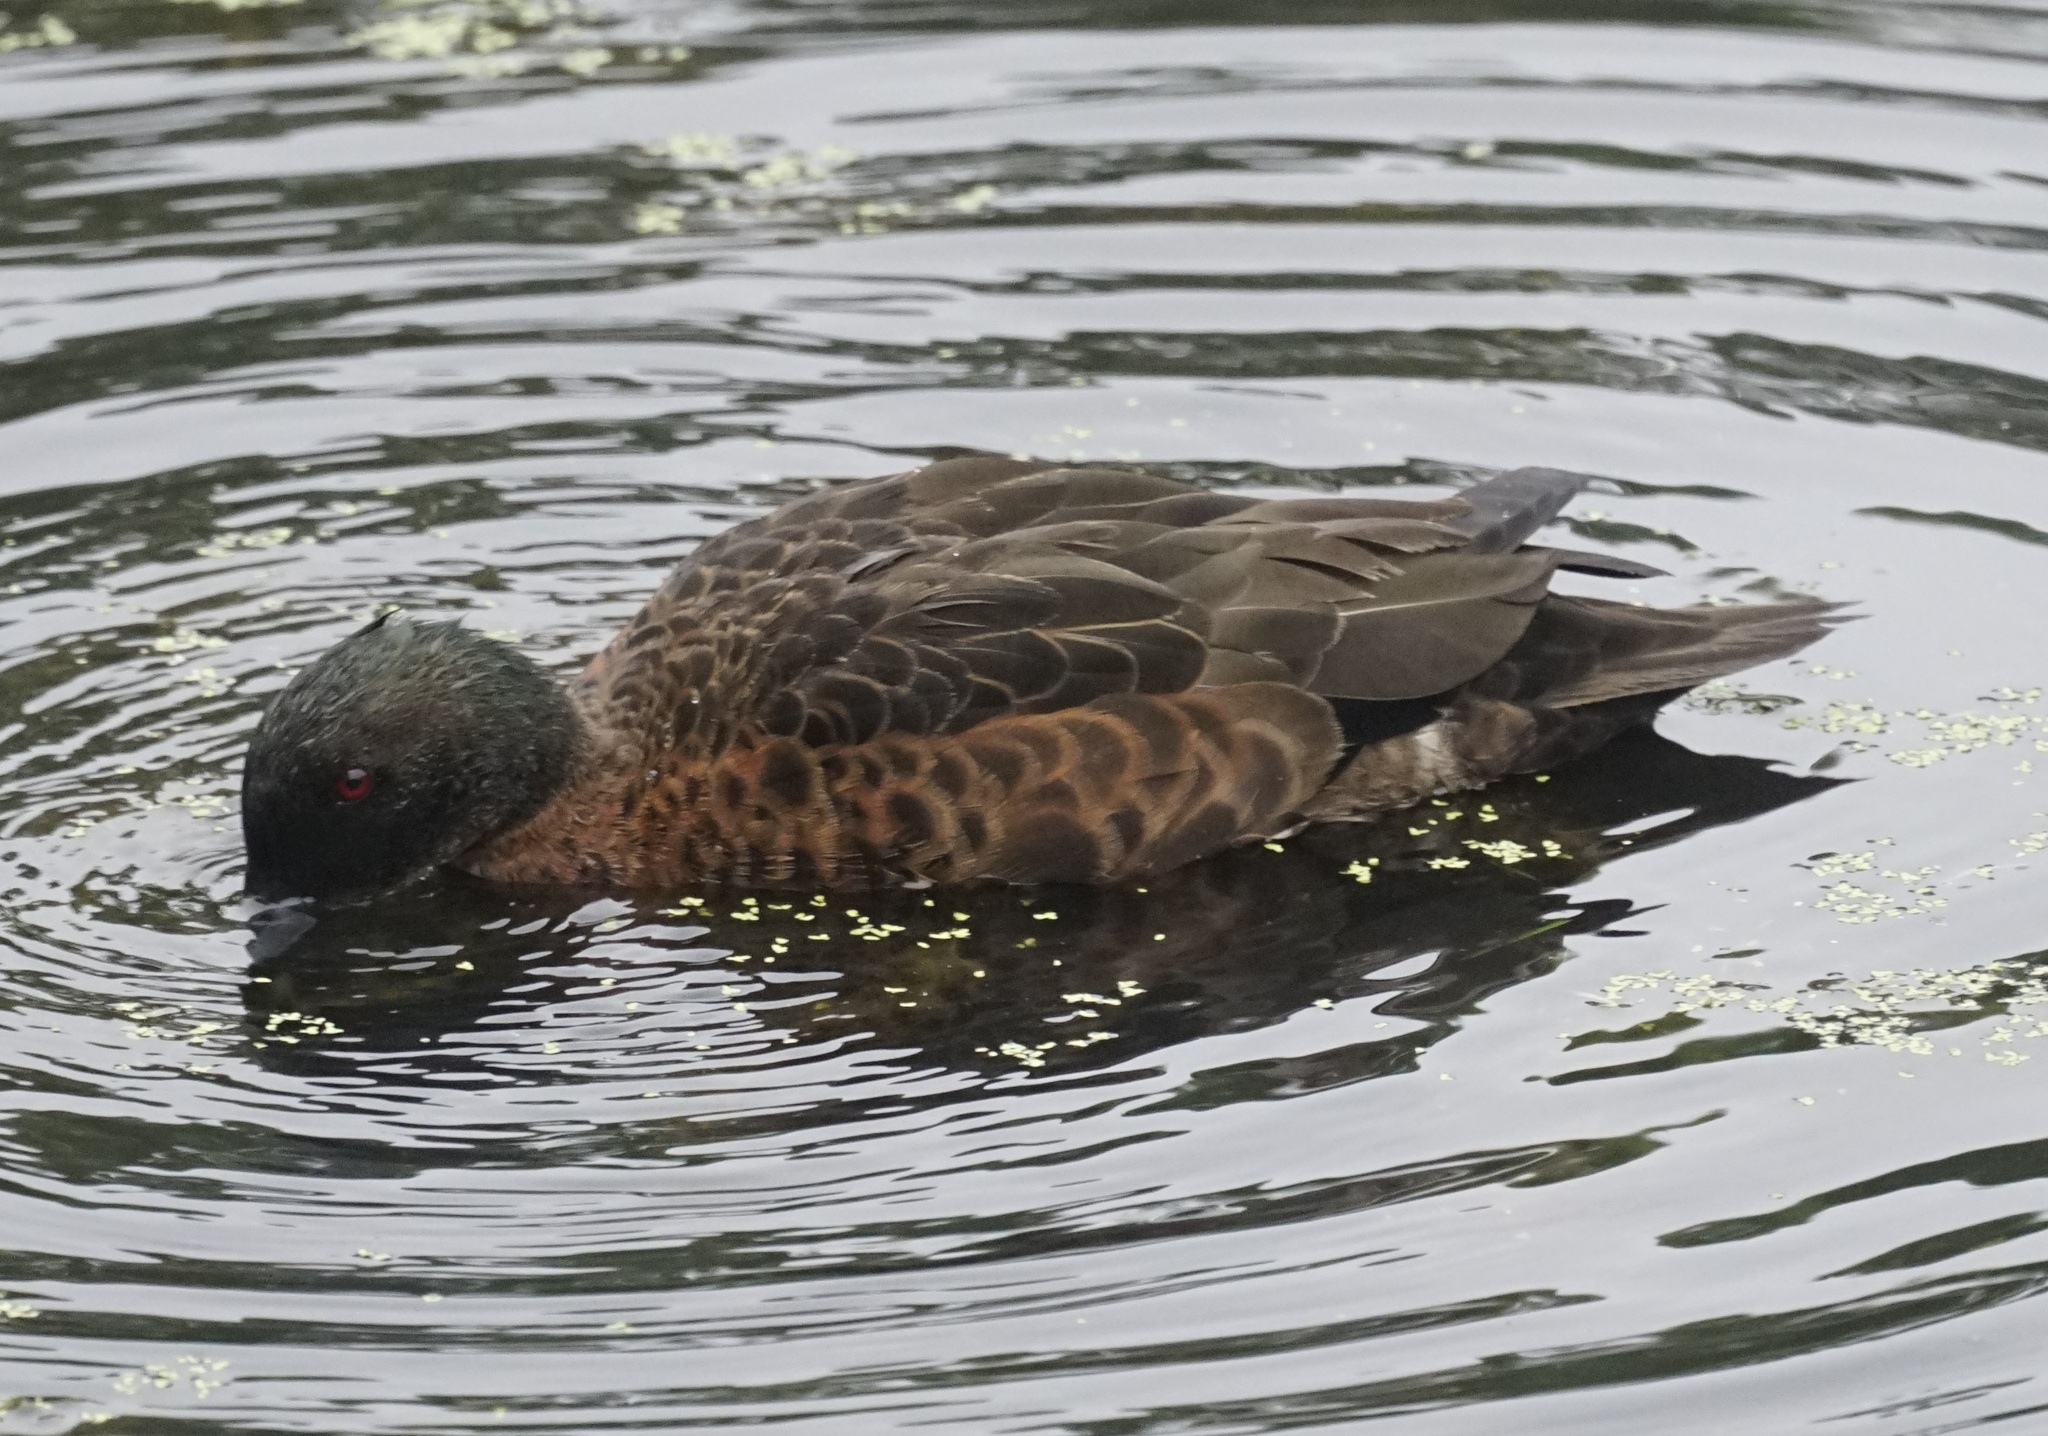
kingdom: Animalia
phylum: Chordata
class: Aves
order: Anseriformes
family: Anatidae
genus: Anas
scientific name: Anas castanea
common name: Chestnut teal
